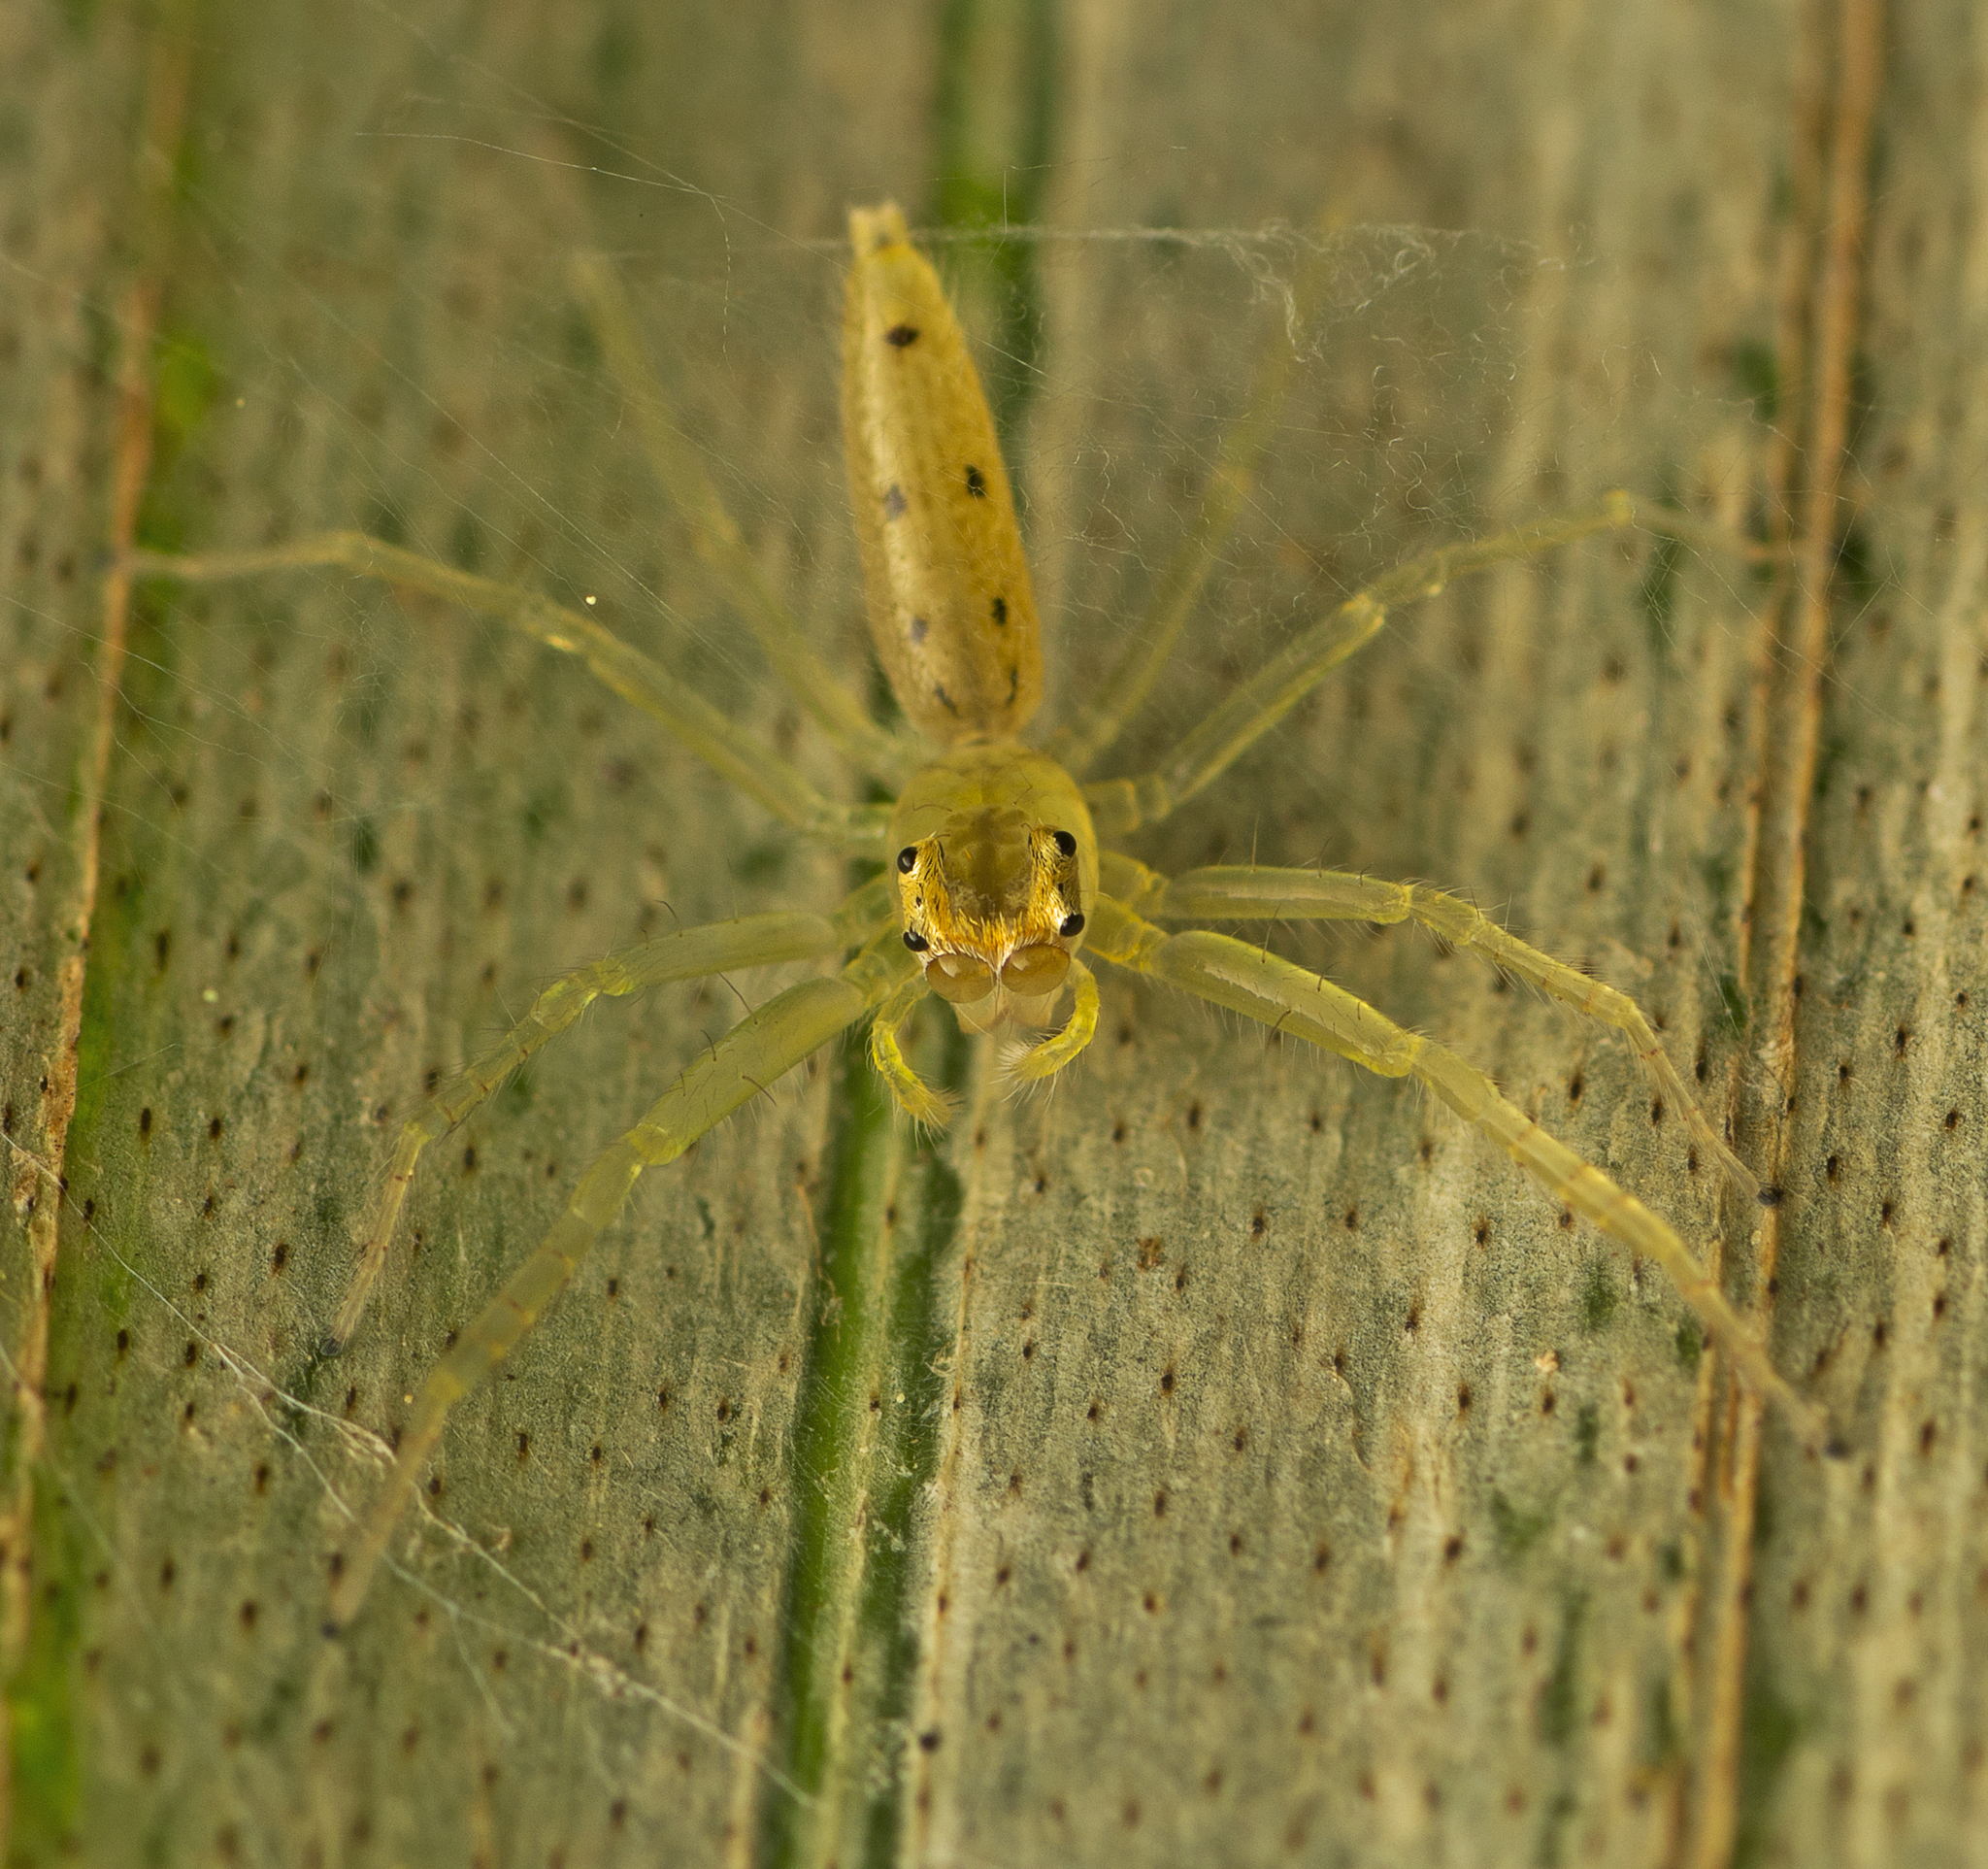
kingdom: Animalia
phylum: Arthropoda
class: Arachnida
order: Araneae
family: Salticidae
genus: Astilodes
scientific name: Astilodes mariae
